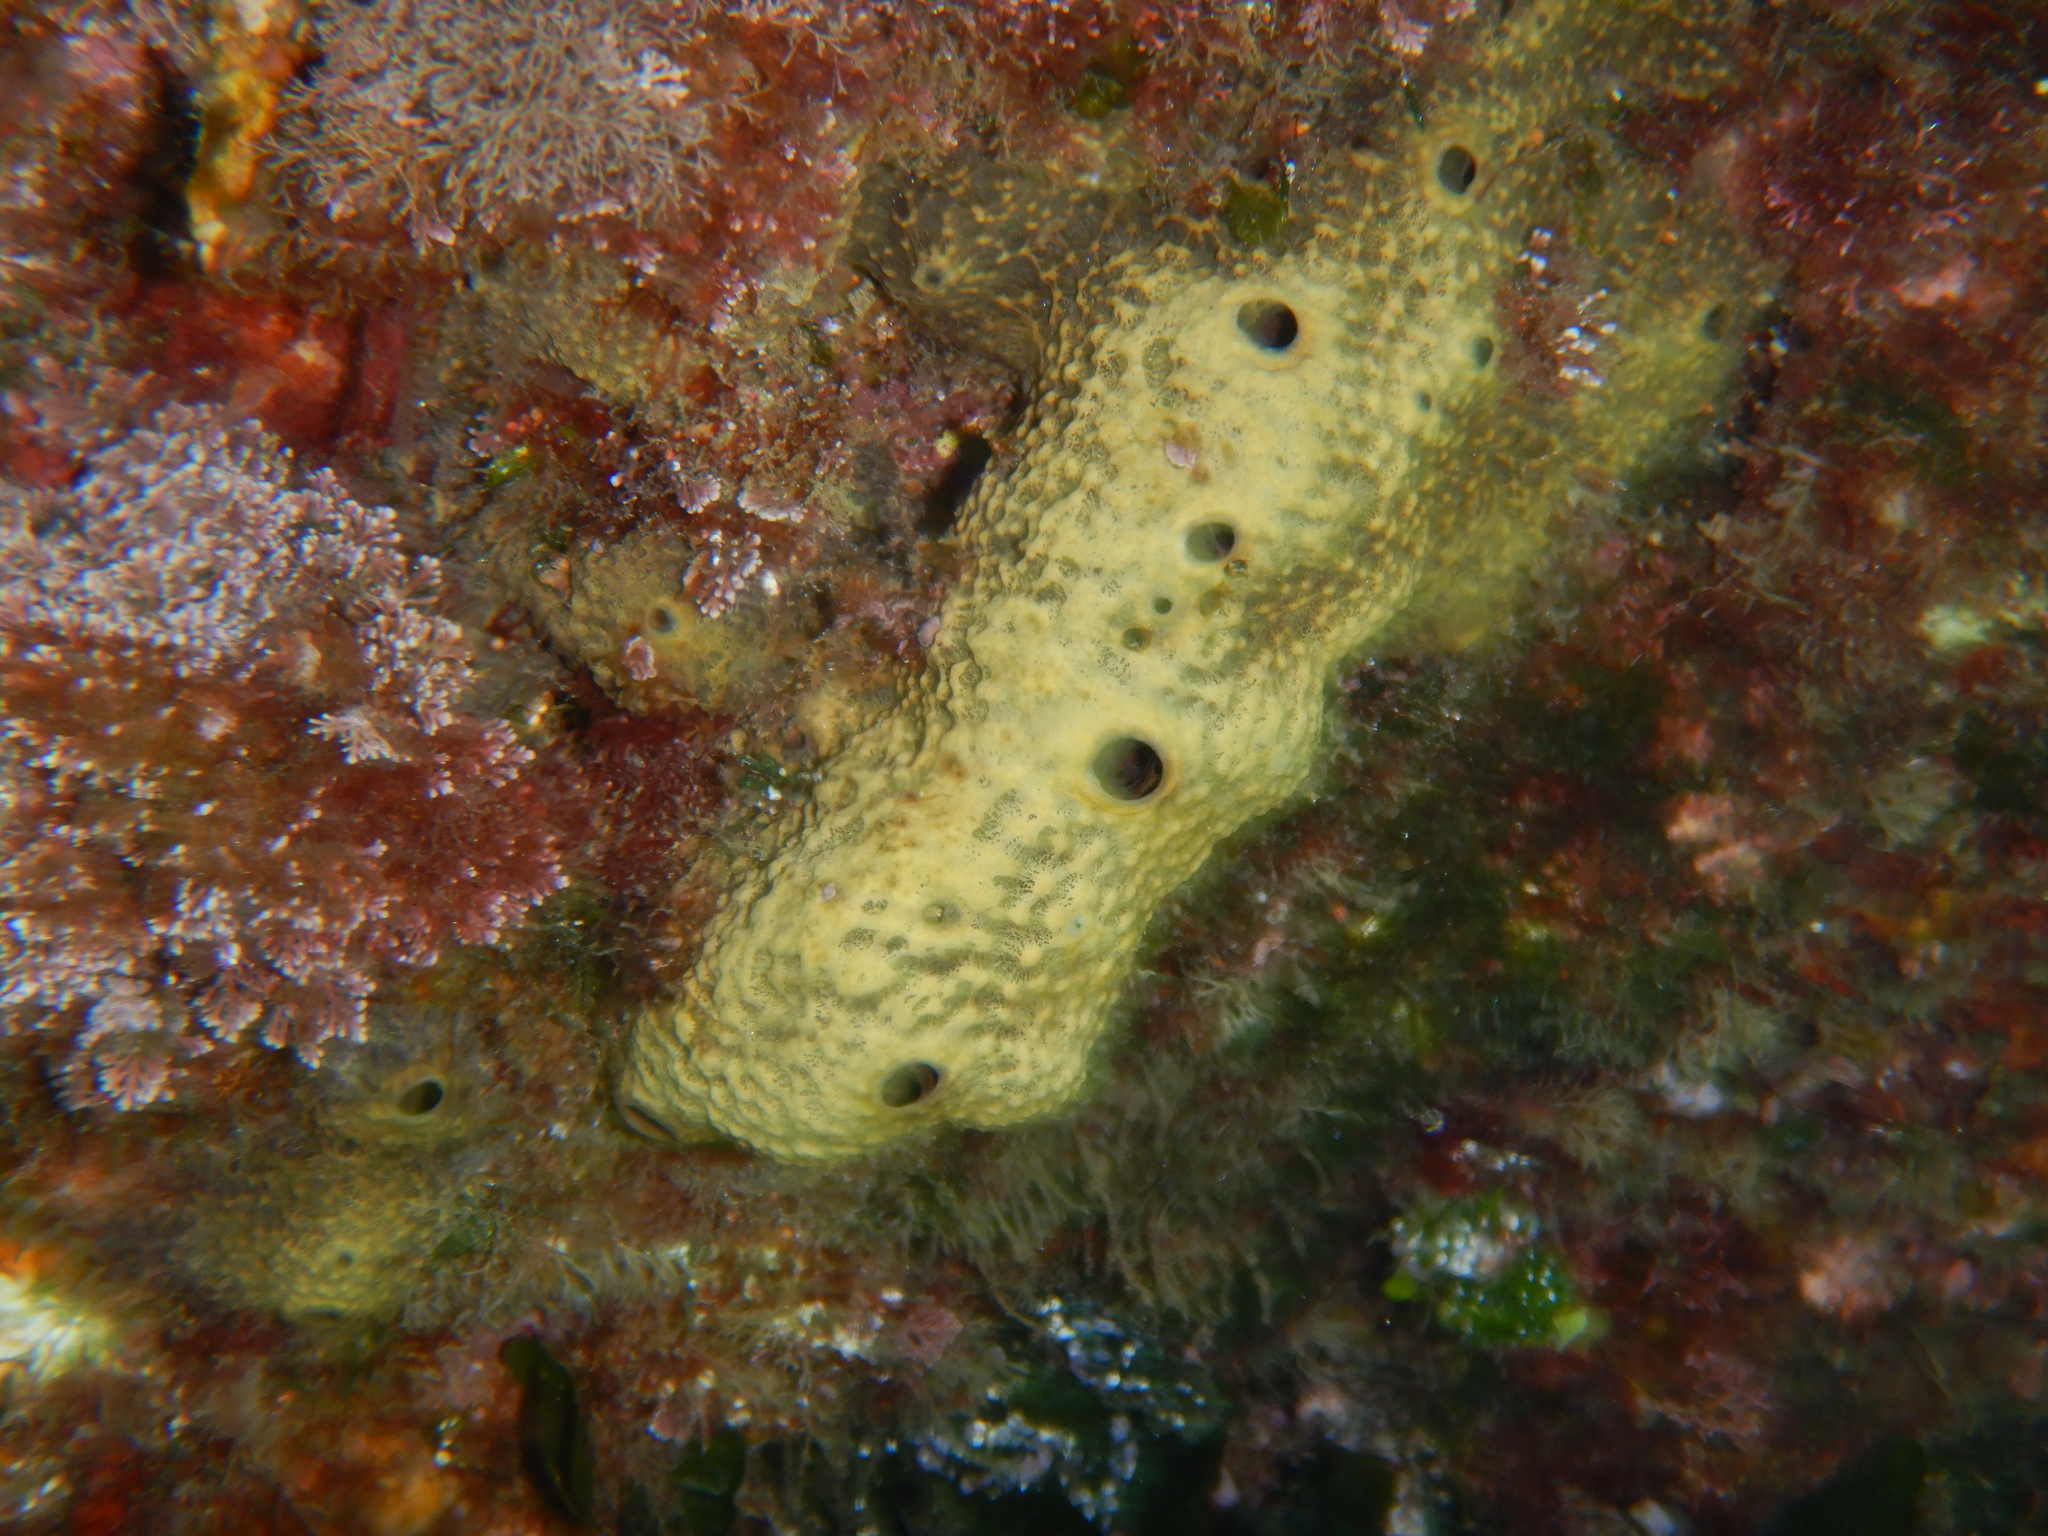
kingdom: Animalia
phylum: Porifera
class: Demospongiae
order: Dictyoceratida
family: Irciniidae
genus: Ircinia
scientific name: Ircinia variabilis
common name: Variable loggerhead sponge
